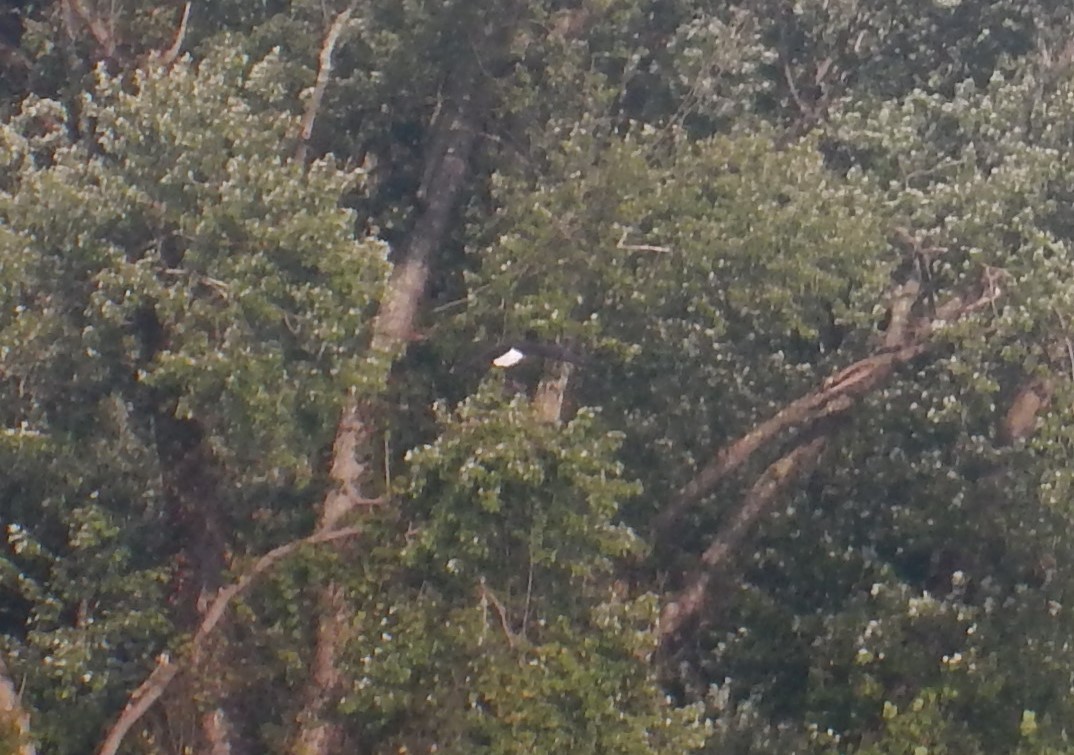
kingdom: Animalia
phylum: Chordata
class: Aves
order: Accipitriformes
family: Accipitridae
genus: Haliaeetus
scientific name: Haliaeetus leucocephalus
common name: Bald eagle
